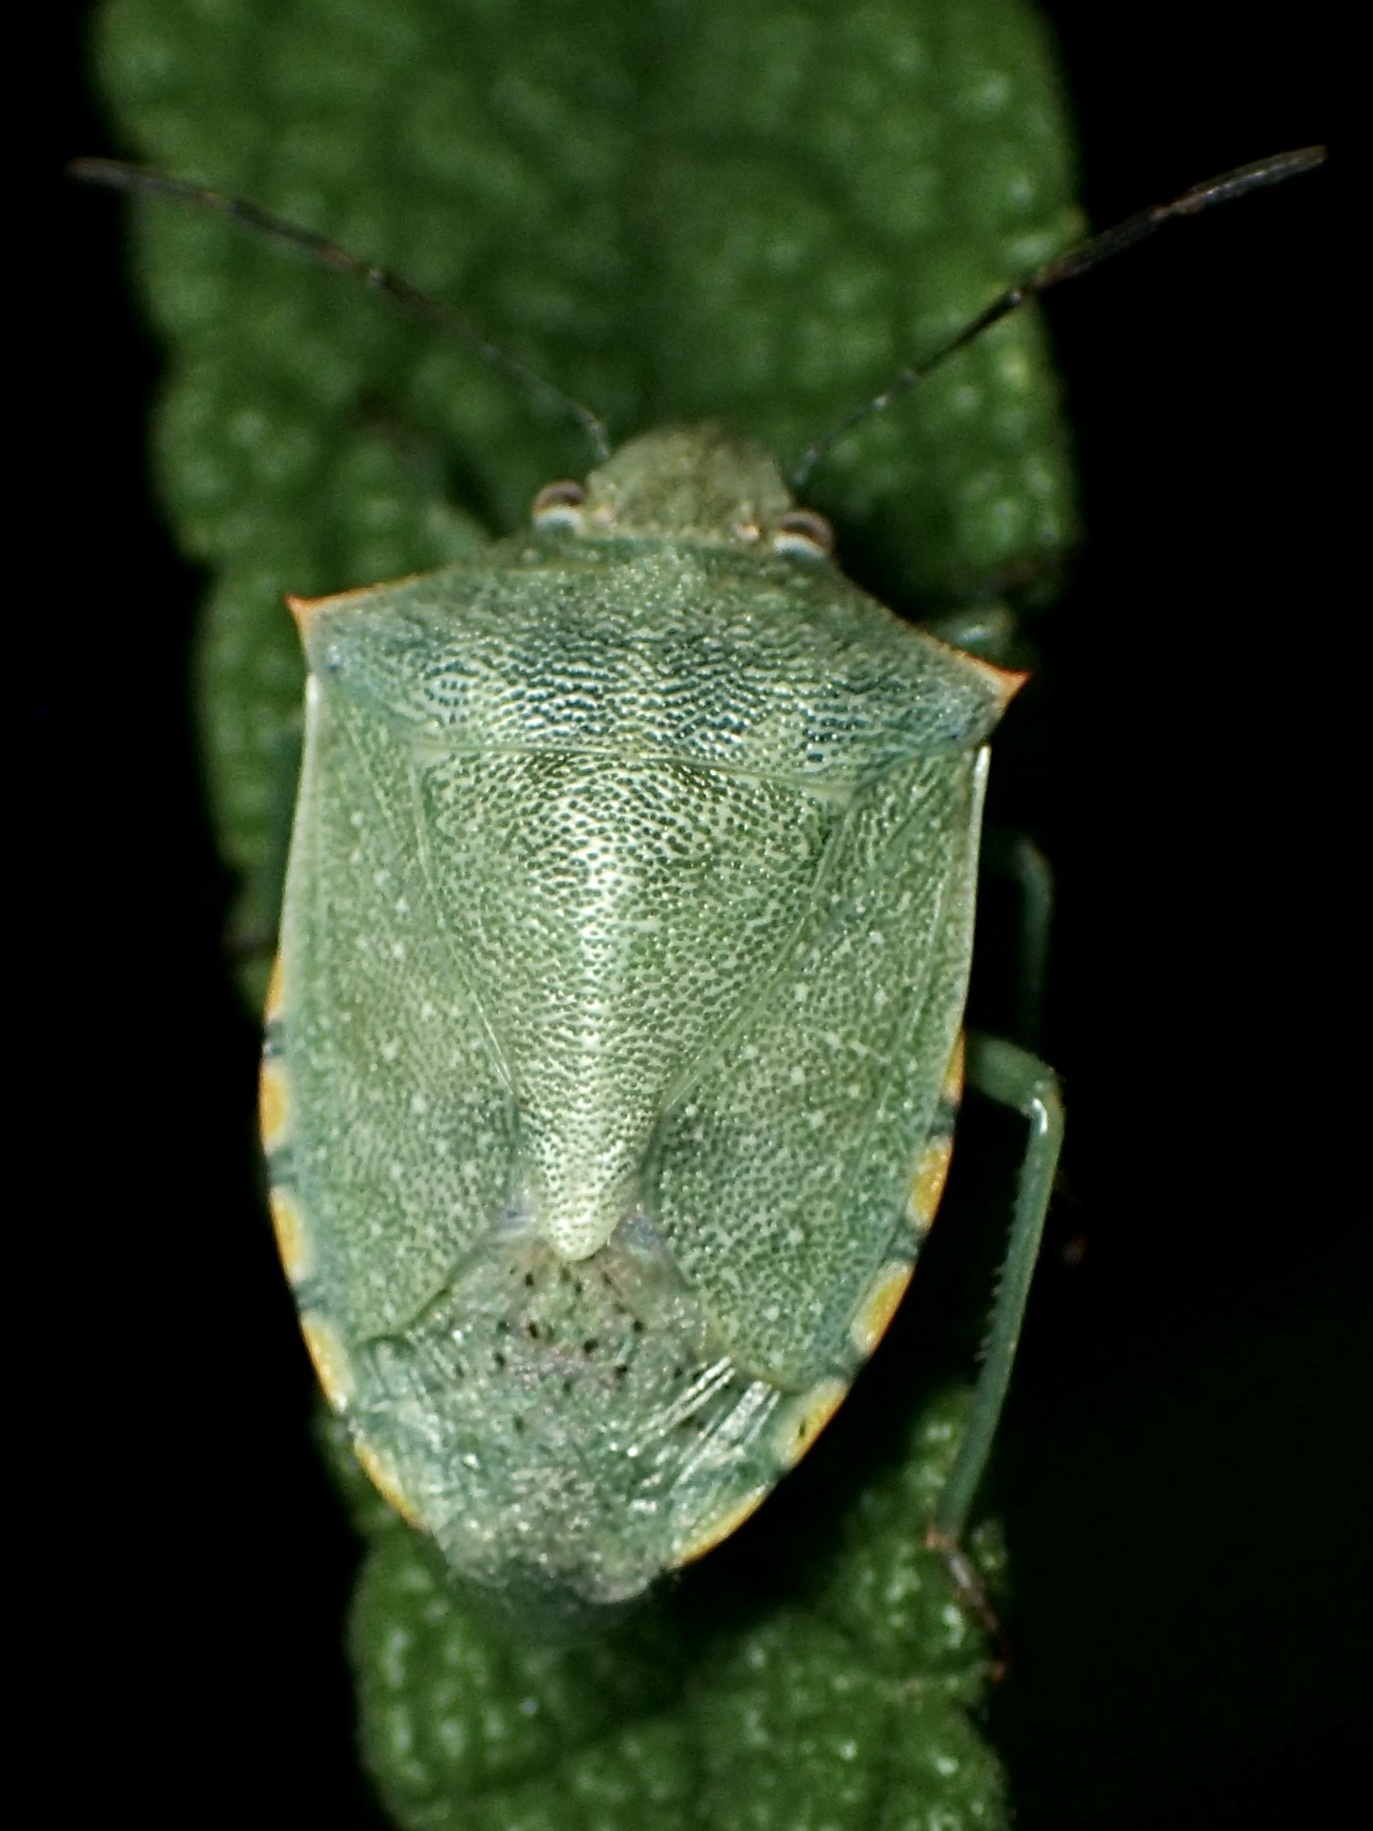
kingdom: Animalia
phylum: Arthropoda
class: Insecta
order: Hemiptera
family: Pentatomidae
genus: Thyanta
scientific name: Thyanta custator
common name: Stink bug
